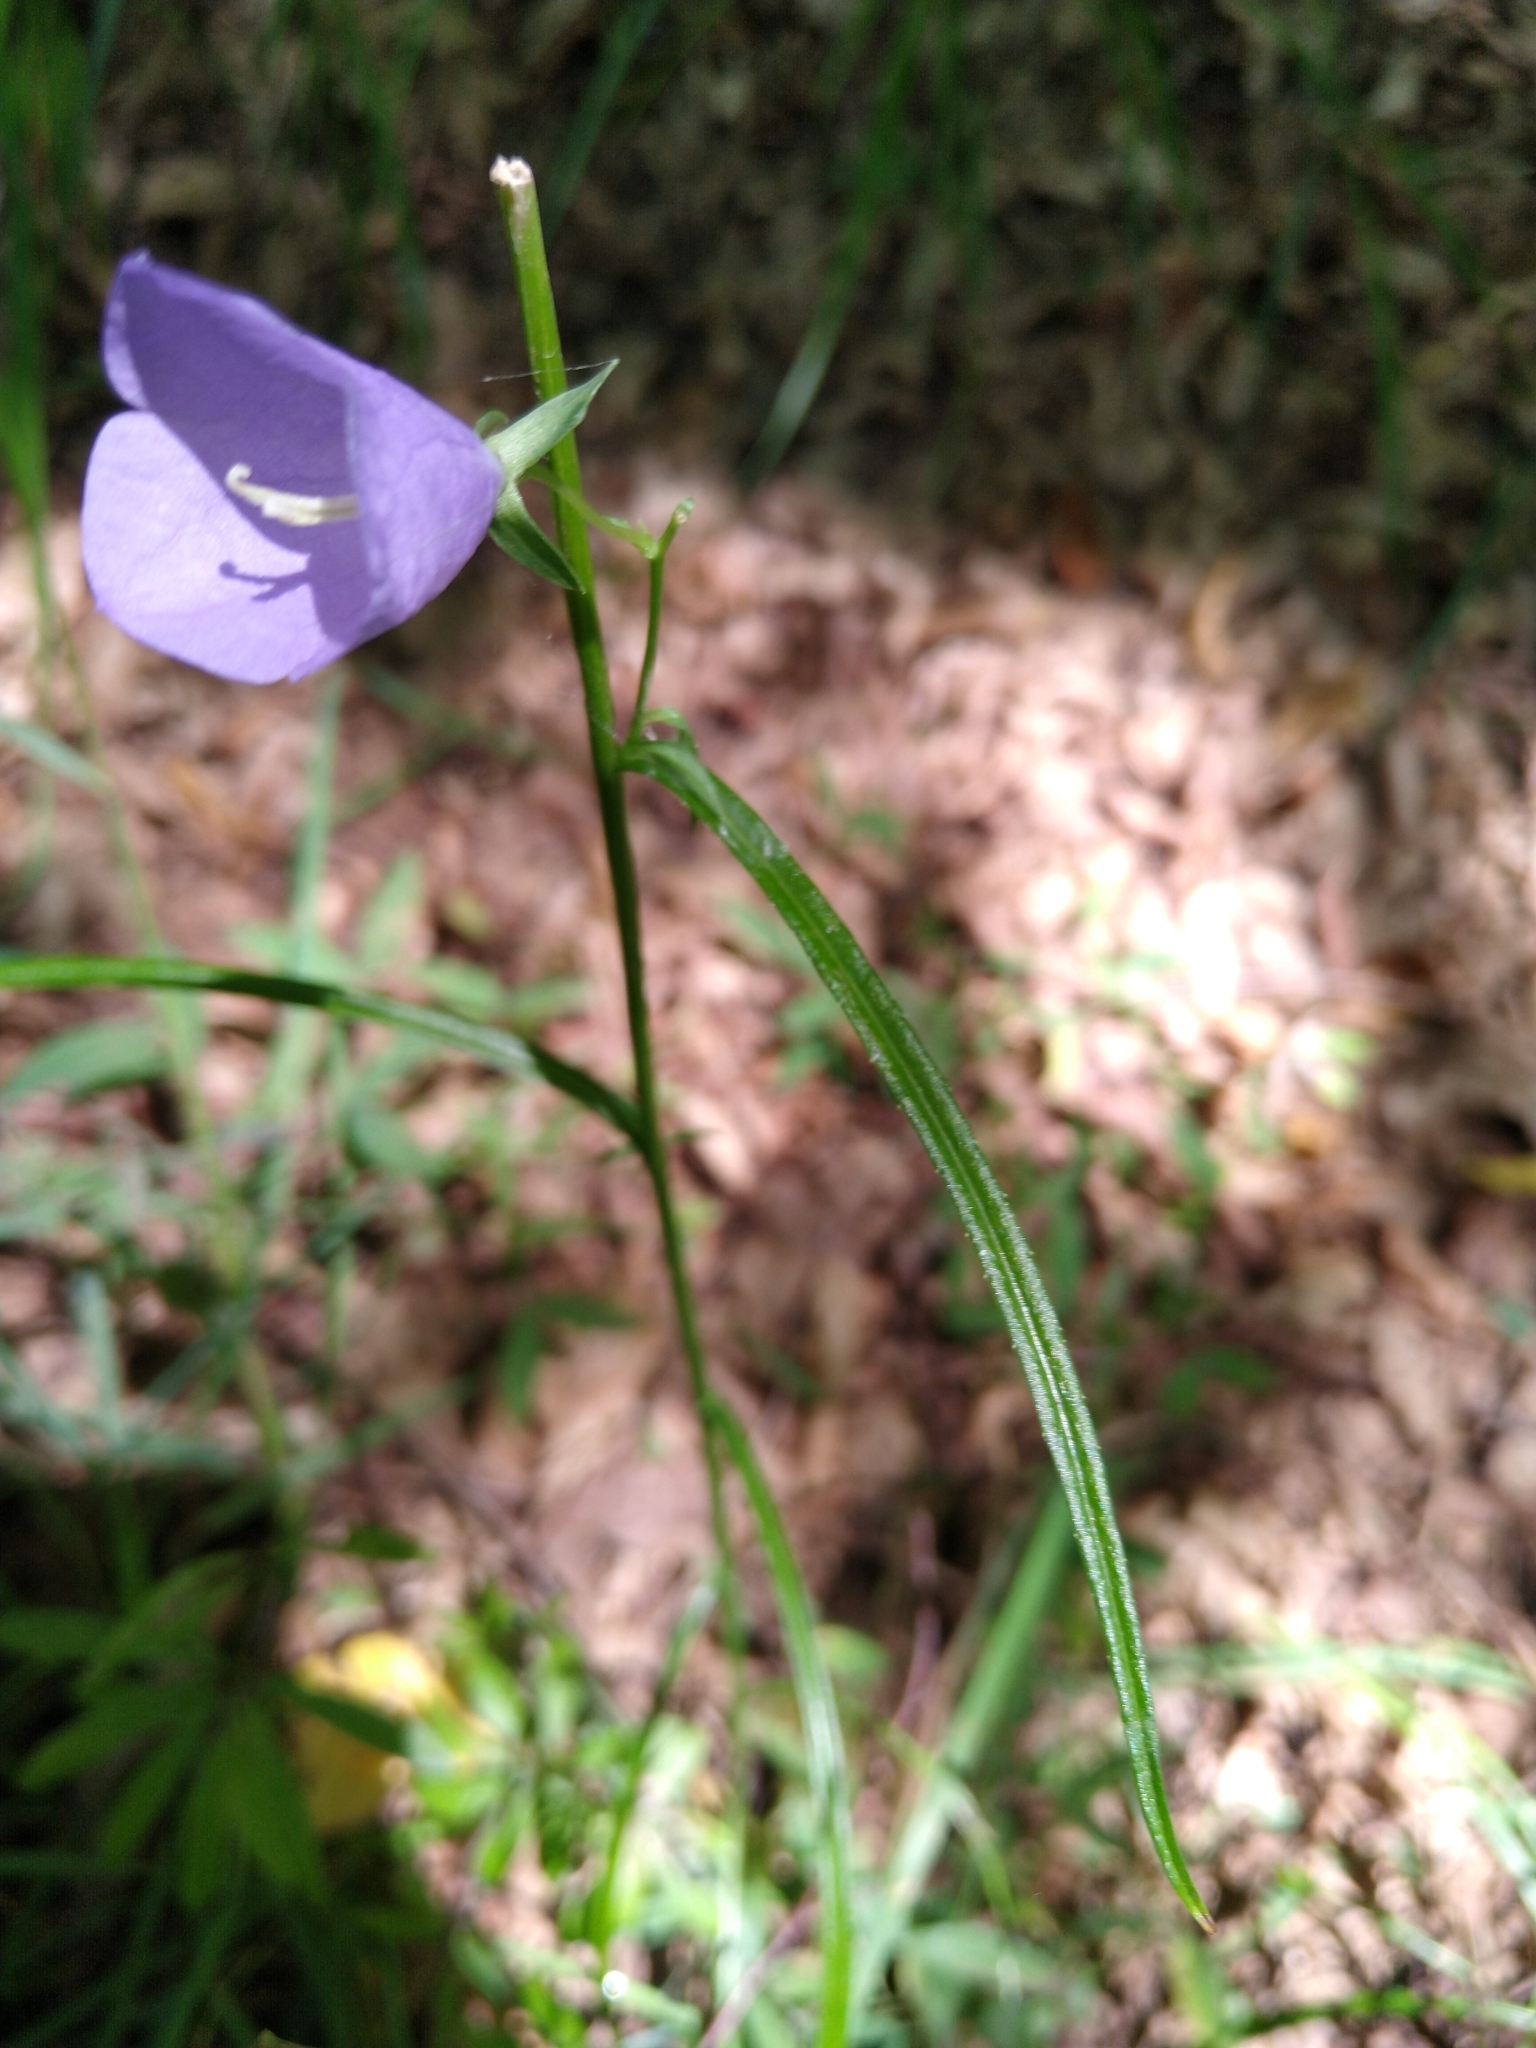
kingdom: Plantae
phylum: Tracheophyta
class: Magnoliopsida
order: Asterales
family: Campanulaceae
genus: Campanula
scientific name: Campanula persicifolia
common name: Peach-leaved bellflower
